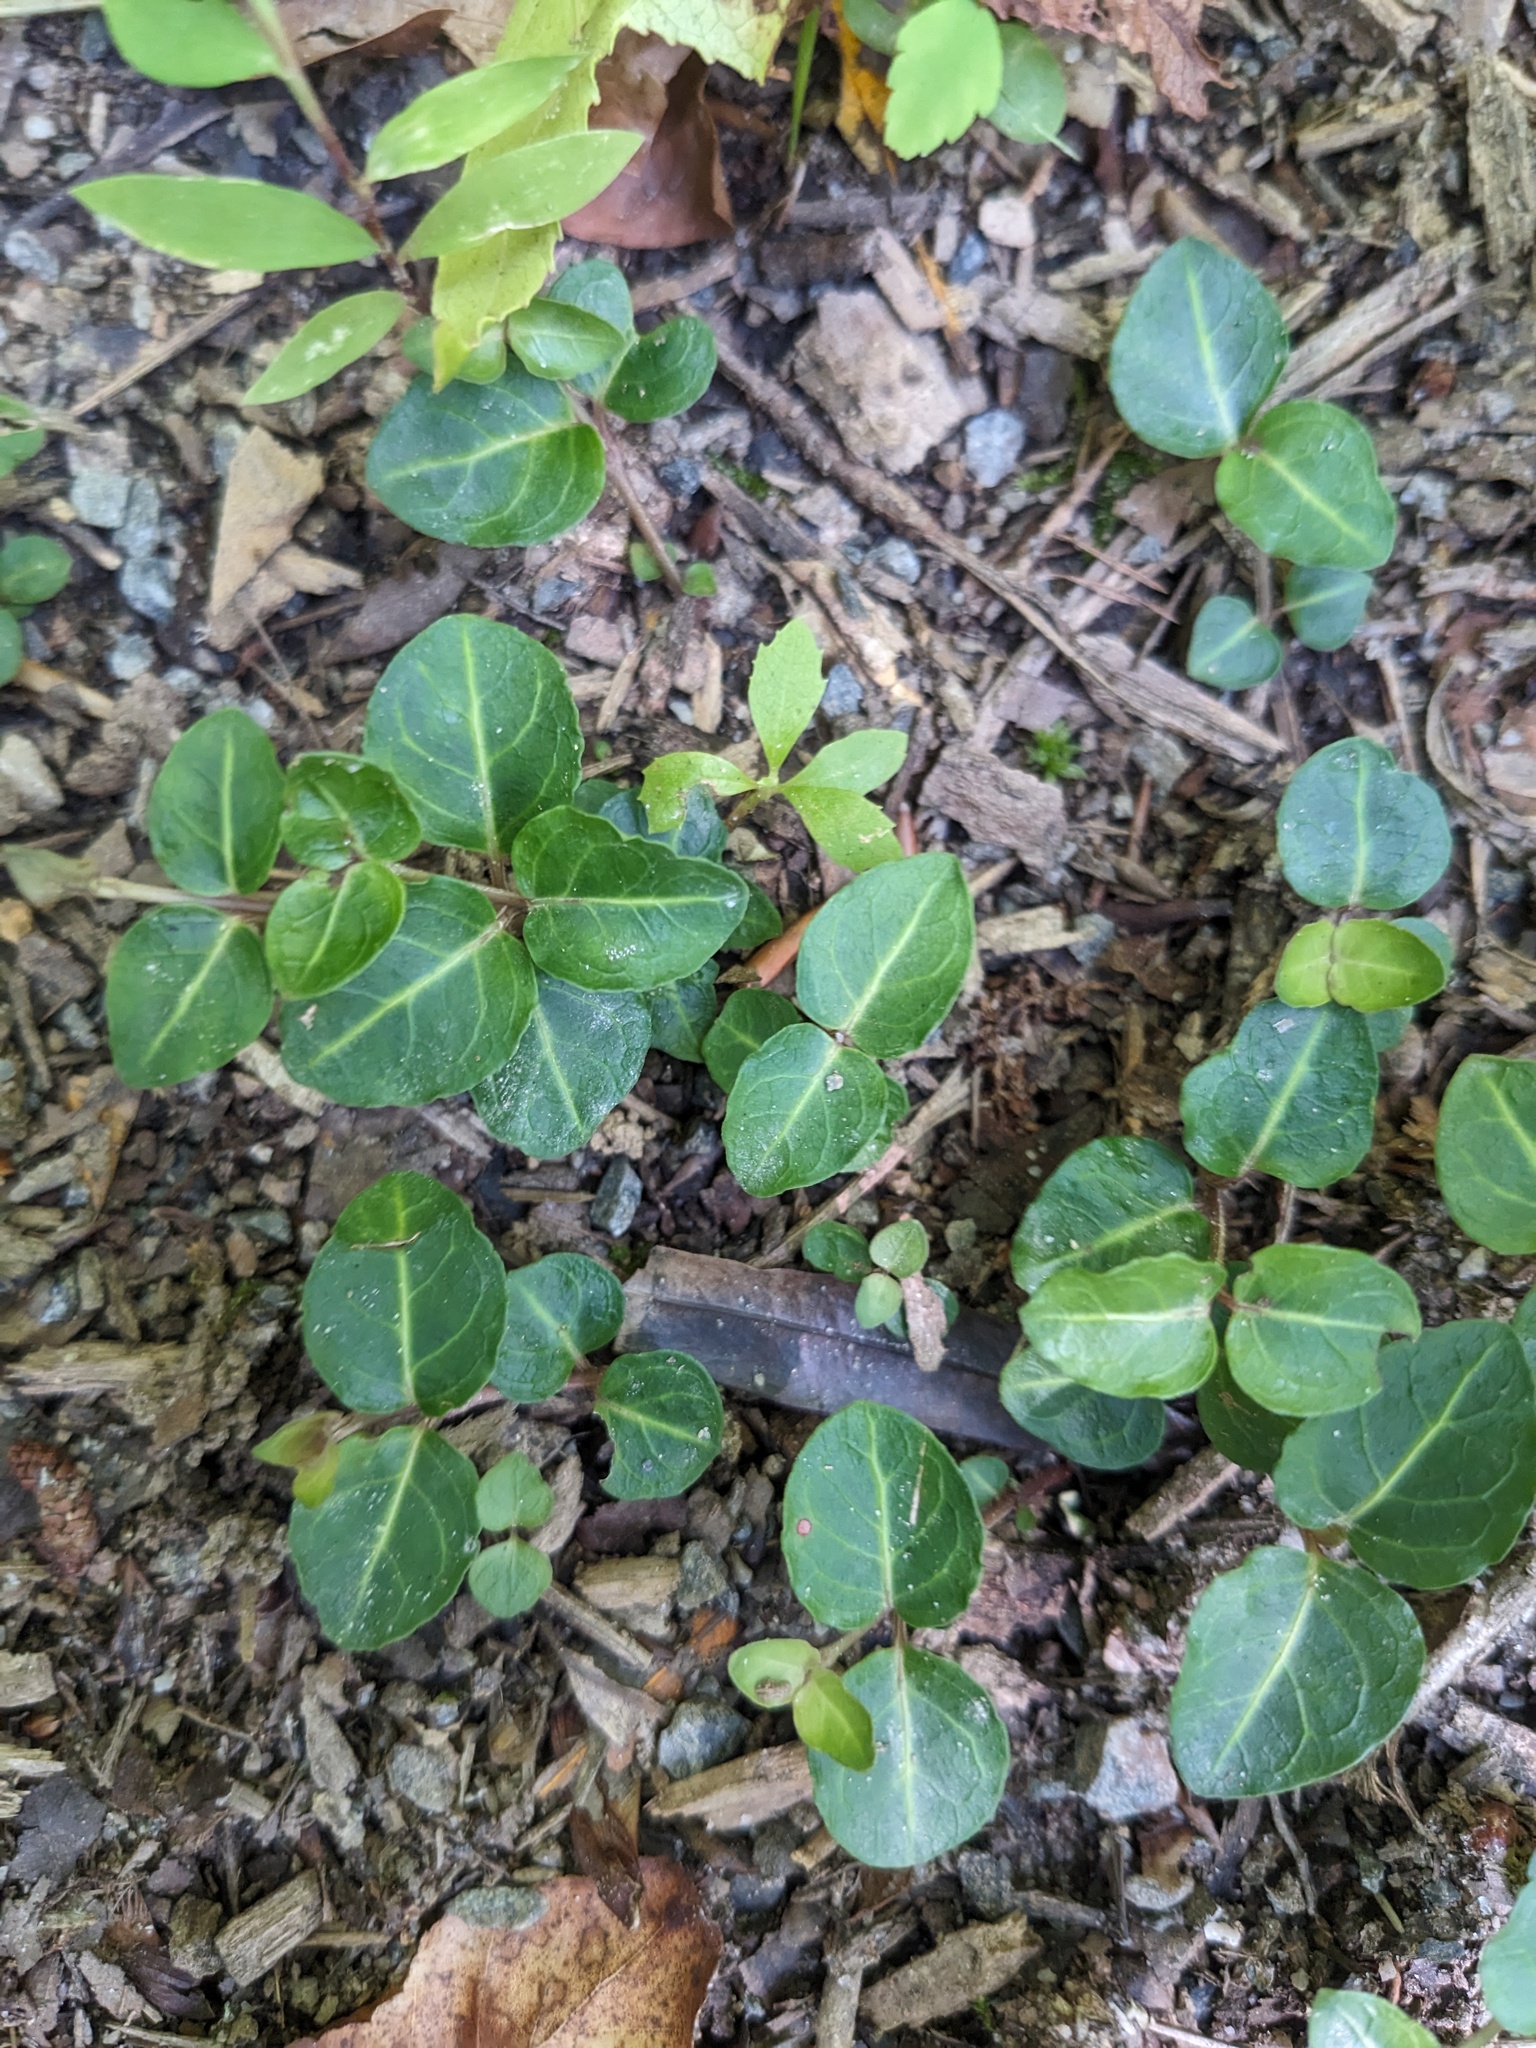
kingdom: Plantae
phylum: Tracheophyta
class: Magnoliopsida
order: Gentianales
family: Rubiaceae
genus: Mitchella
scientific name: Mitchella repens
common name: Partridge-berry
